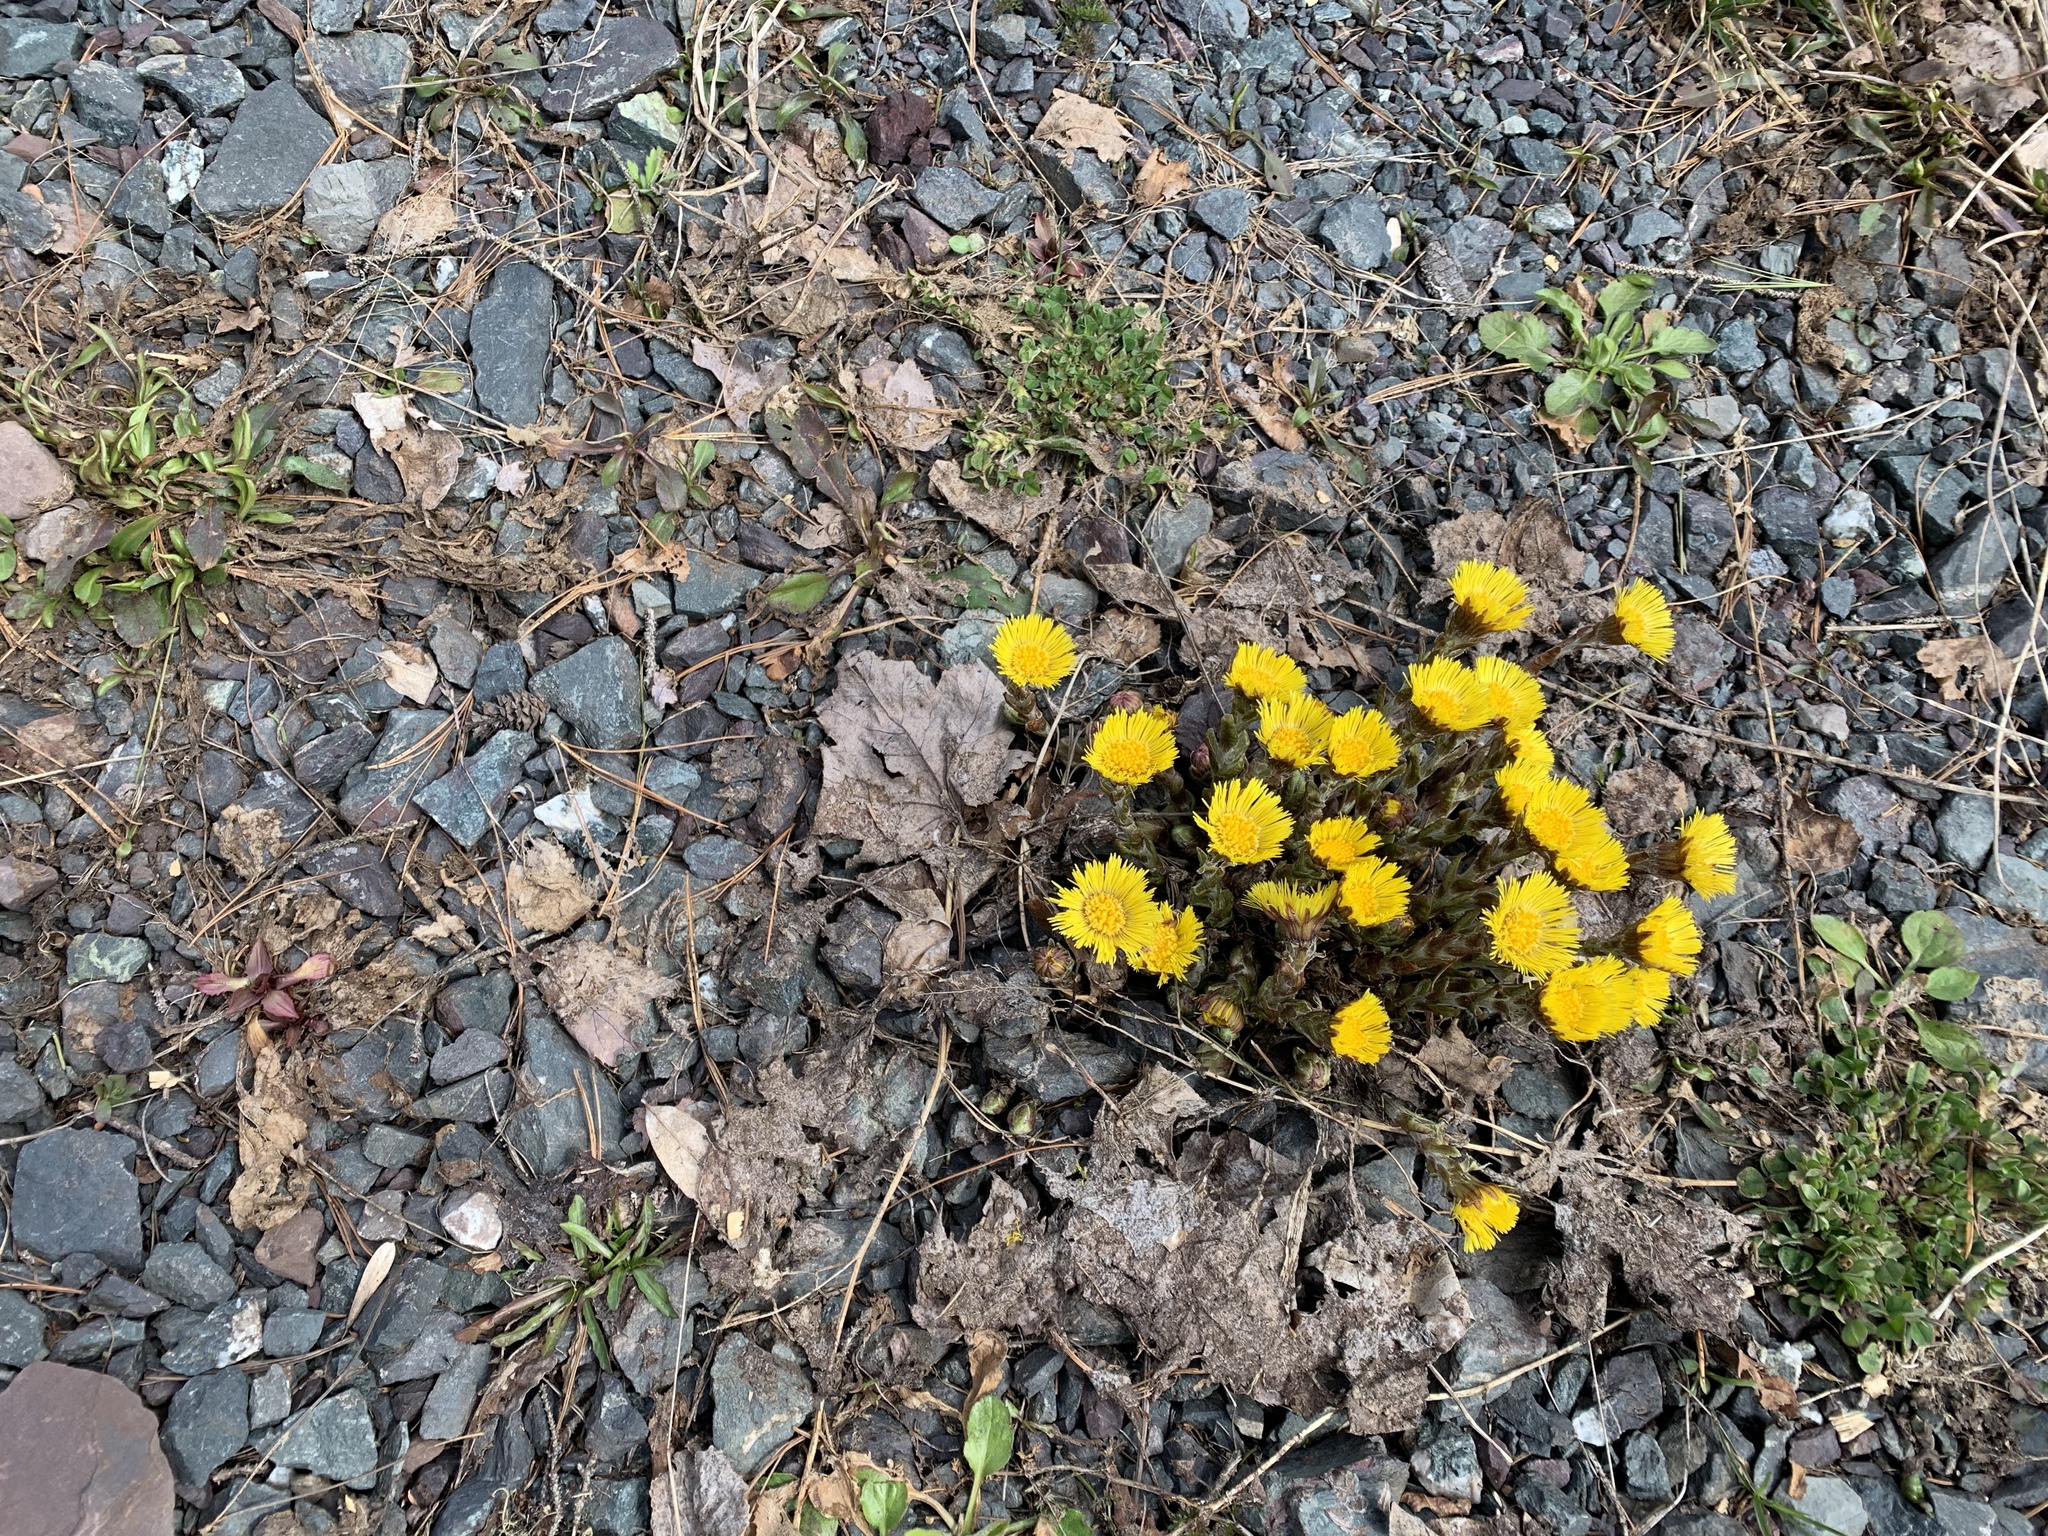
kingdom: Plantae
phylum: Tracheophyta
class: Magnoliopsida
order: Asterales
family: Asteraceae
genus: Tussilago
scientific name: Tussilago farfara
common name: Coltsfoot
